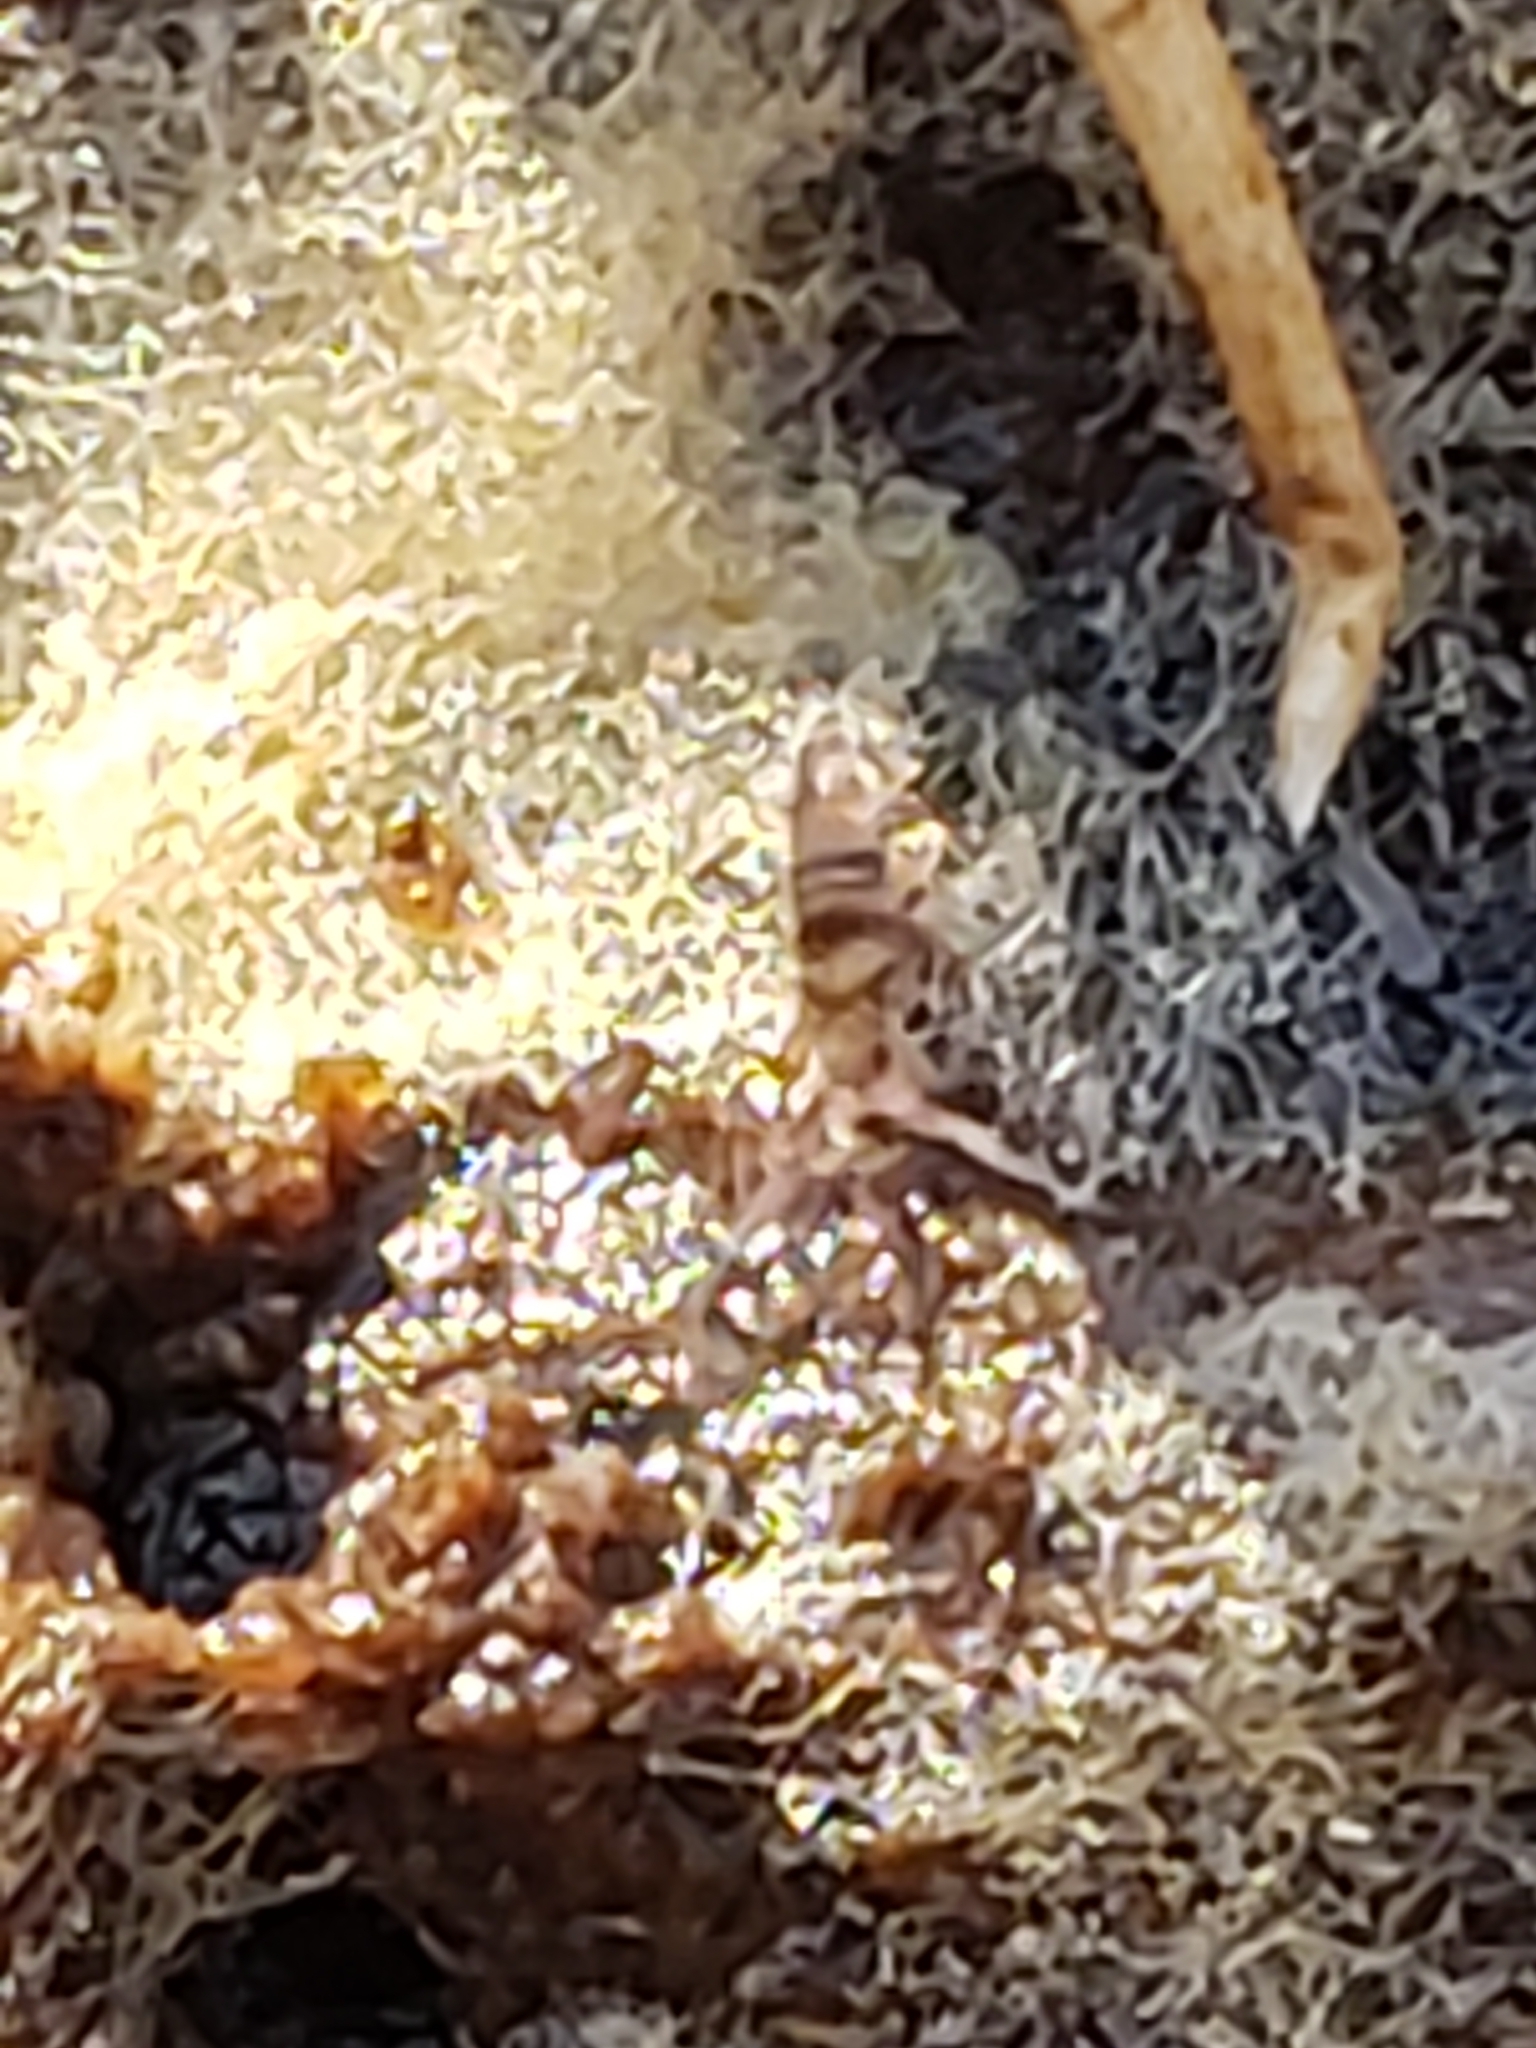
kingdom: Animalia
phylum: Arthropoda
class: Collembola
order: Entomobryomorpha
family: Entomobryidae
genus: Homidia
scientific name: Homidia sauteri
